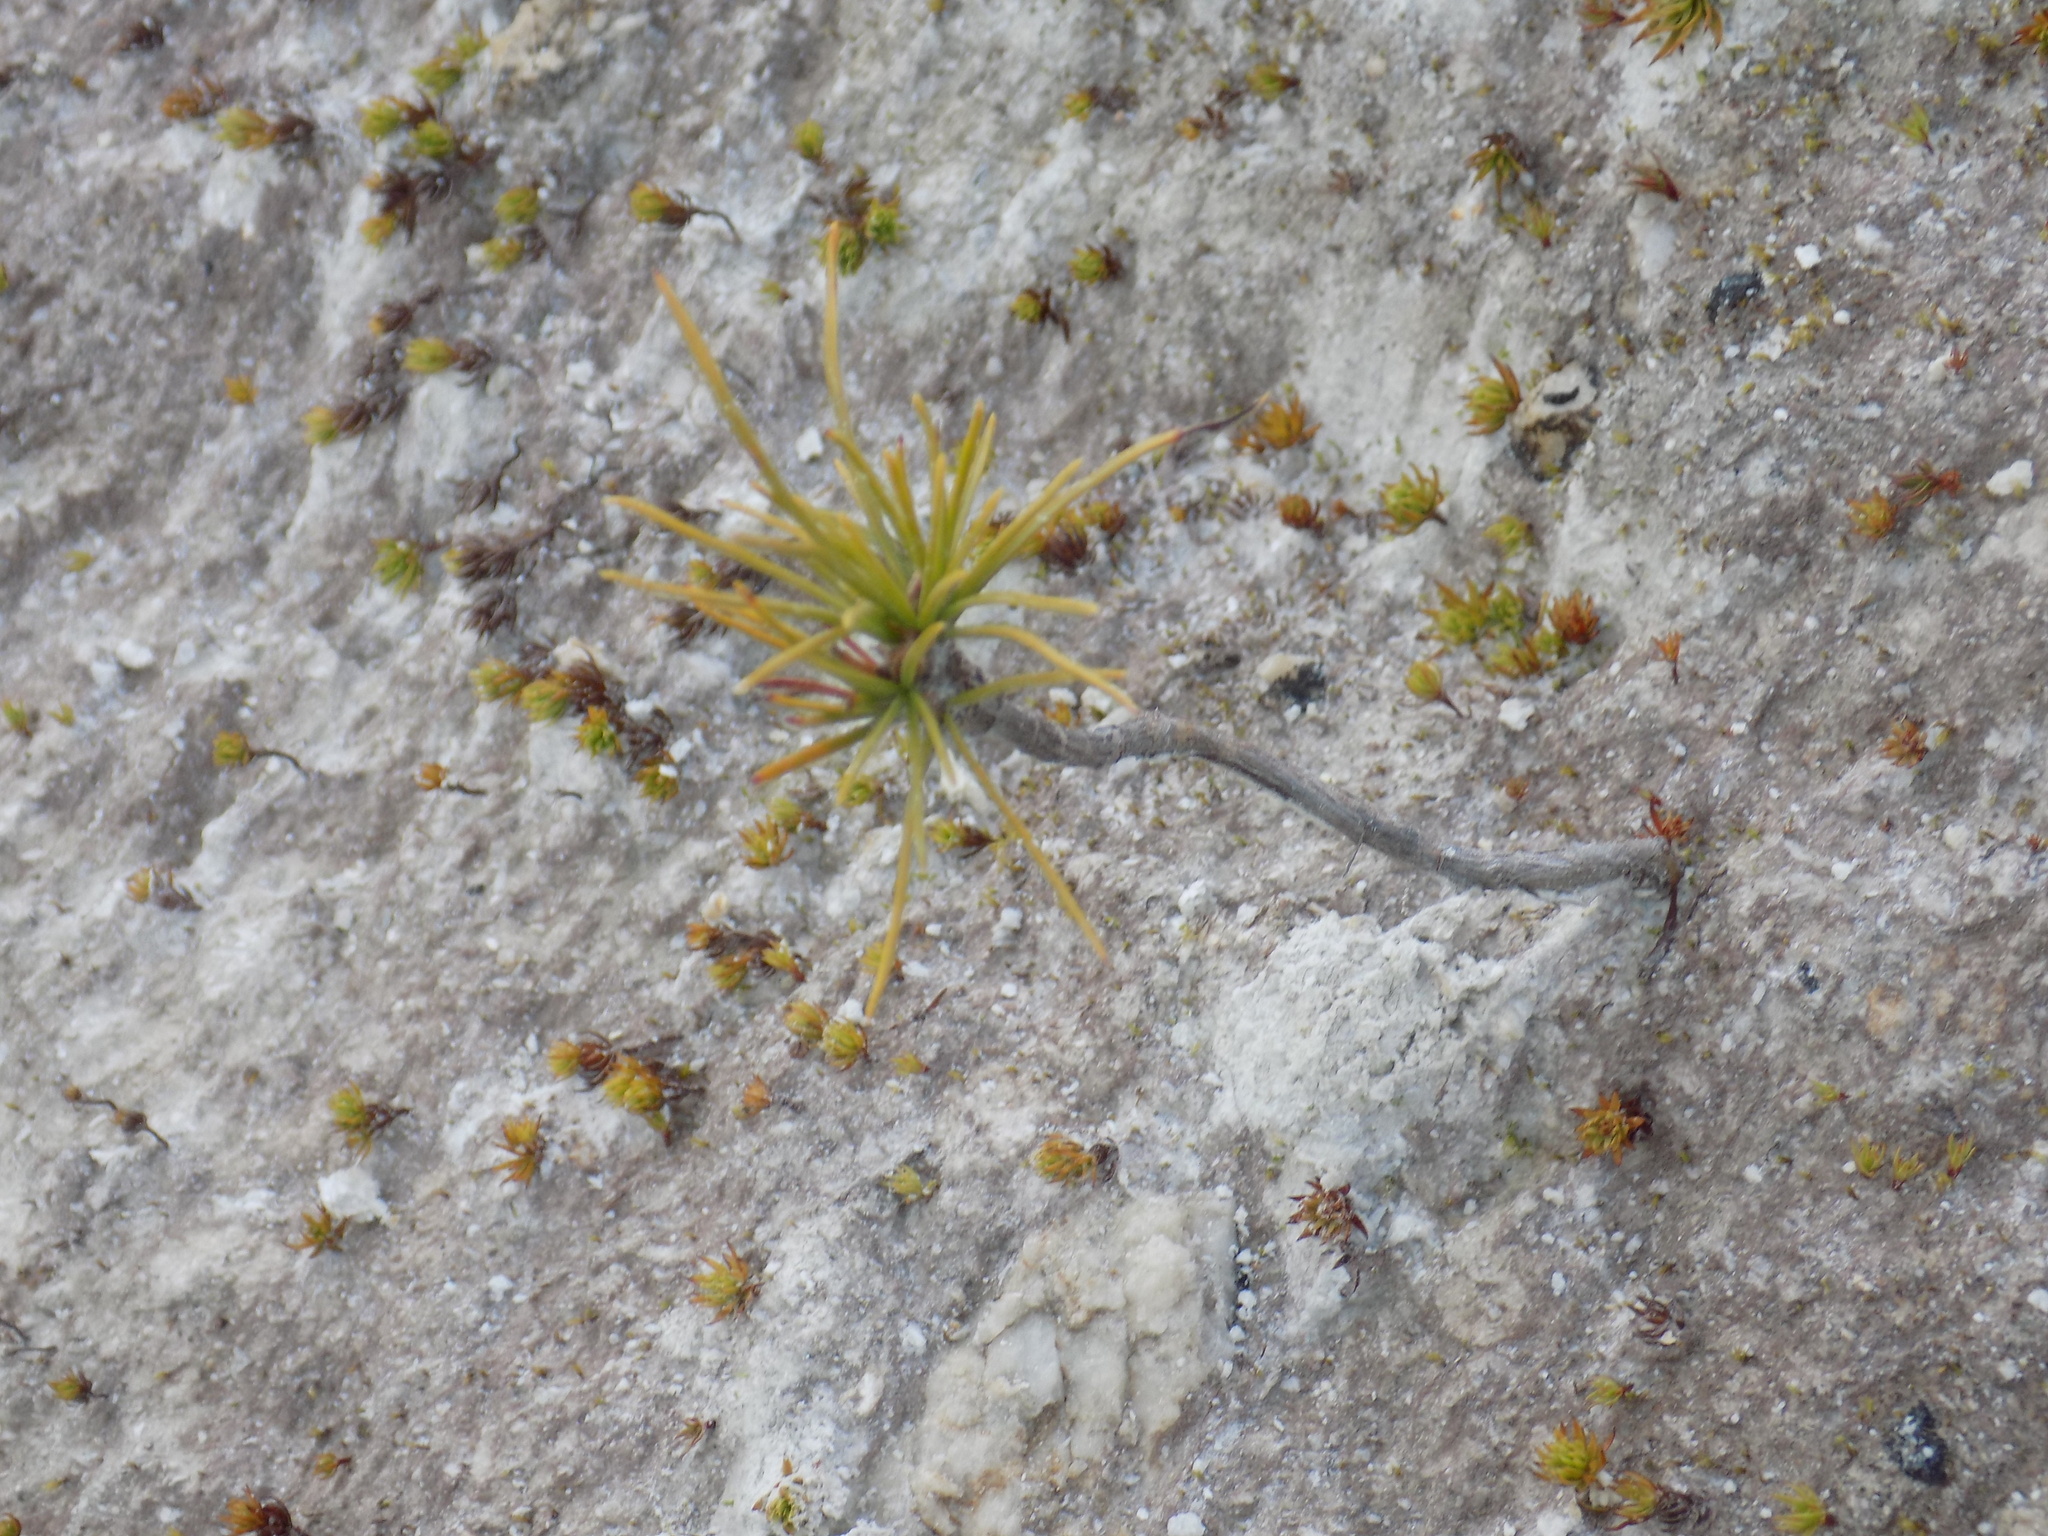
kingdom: Plantae
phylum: Tracheophyta
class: Pinopsida
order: Pinales
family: Pinaceae
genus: Pinus
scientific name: Pinus sibirica
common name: Siberian pine
